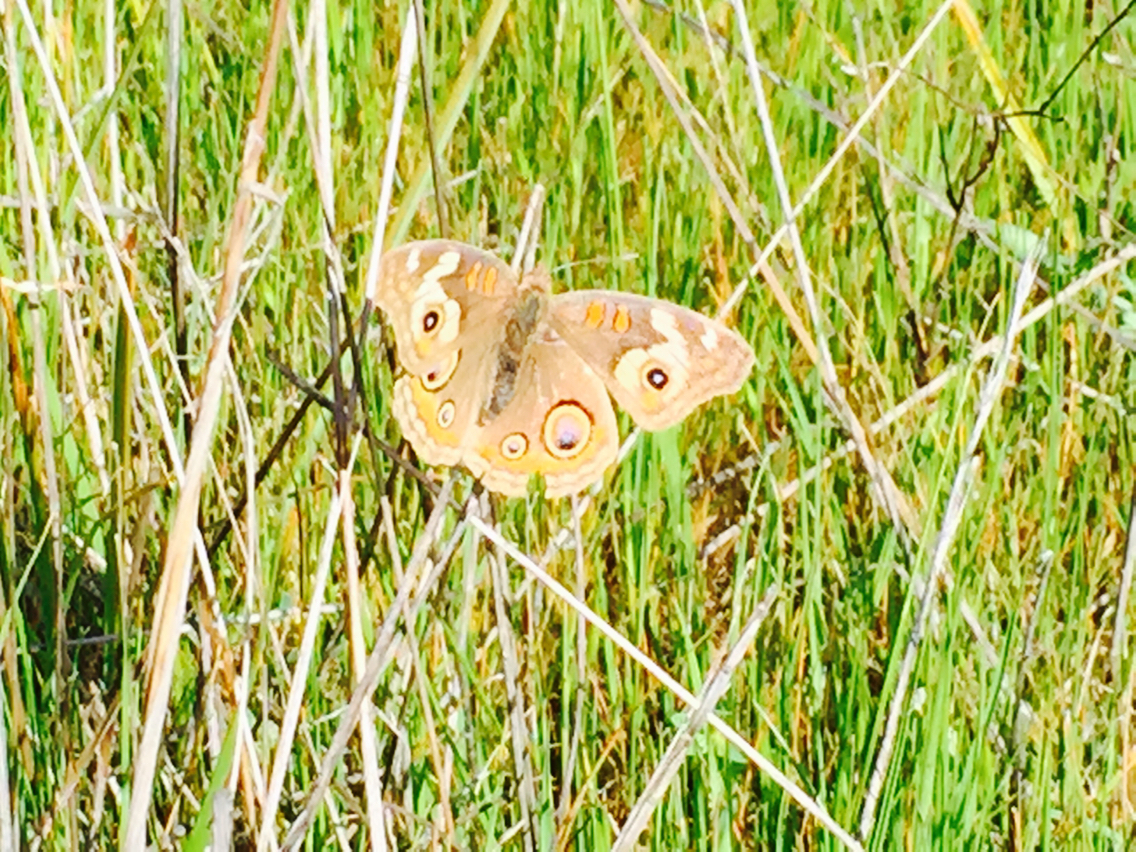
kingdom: Animalia
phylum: Arthropoda
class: Insecta
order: Lepidoptera
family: Nymphalidae
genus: Junonia
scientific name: Junonia grisea
